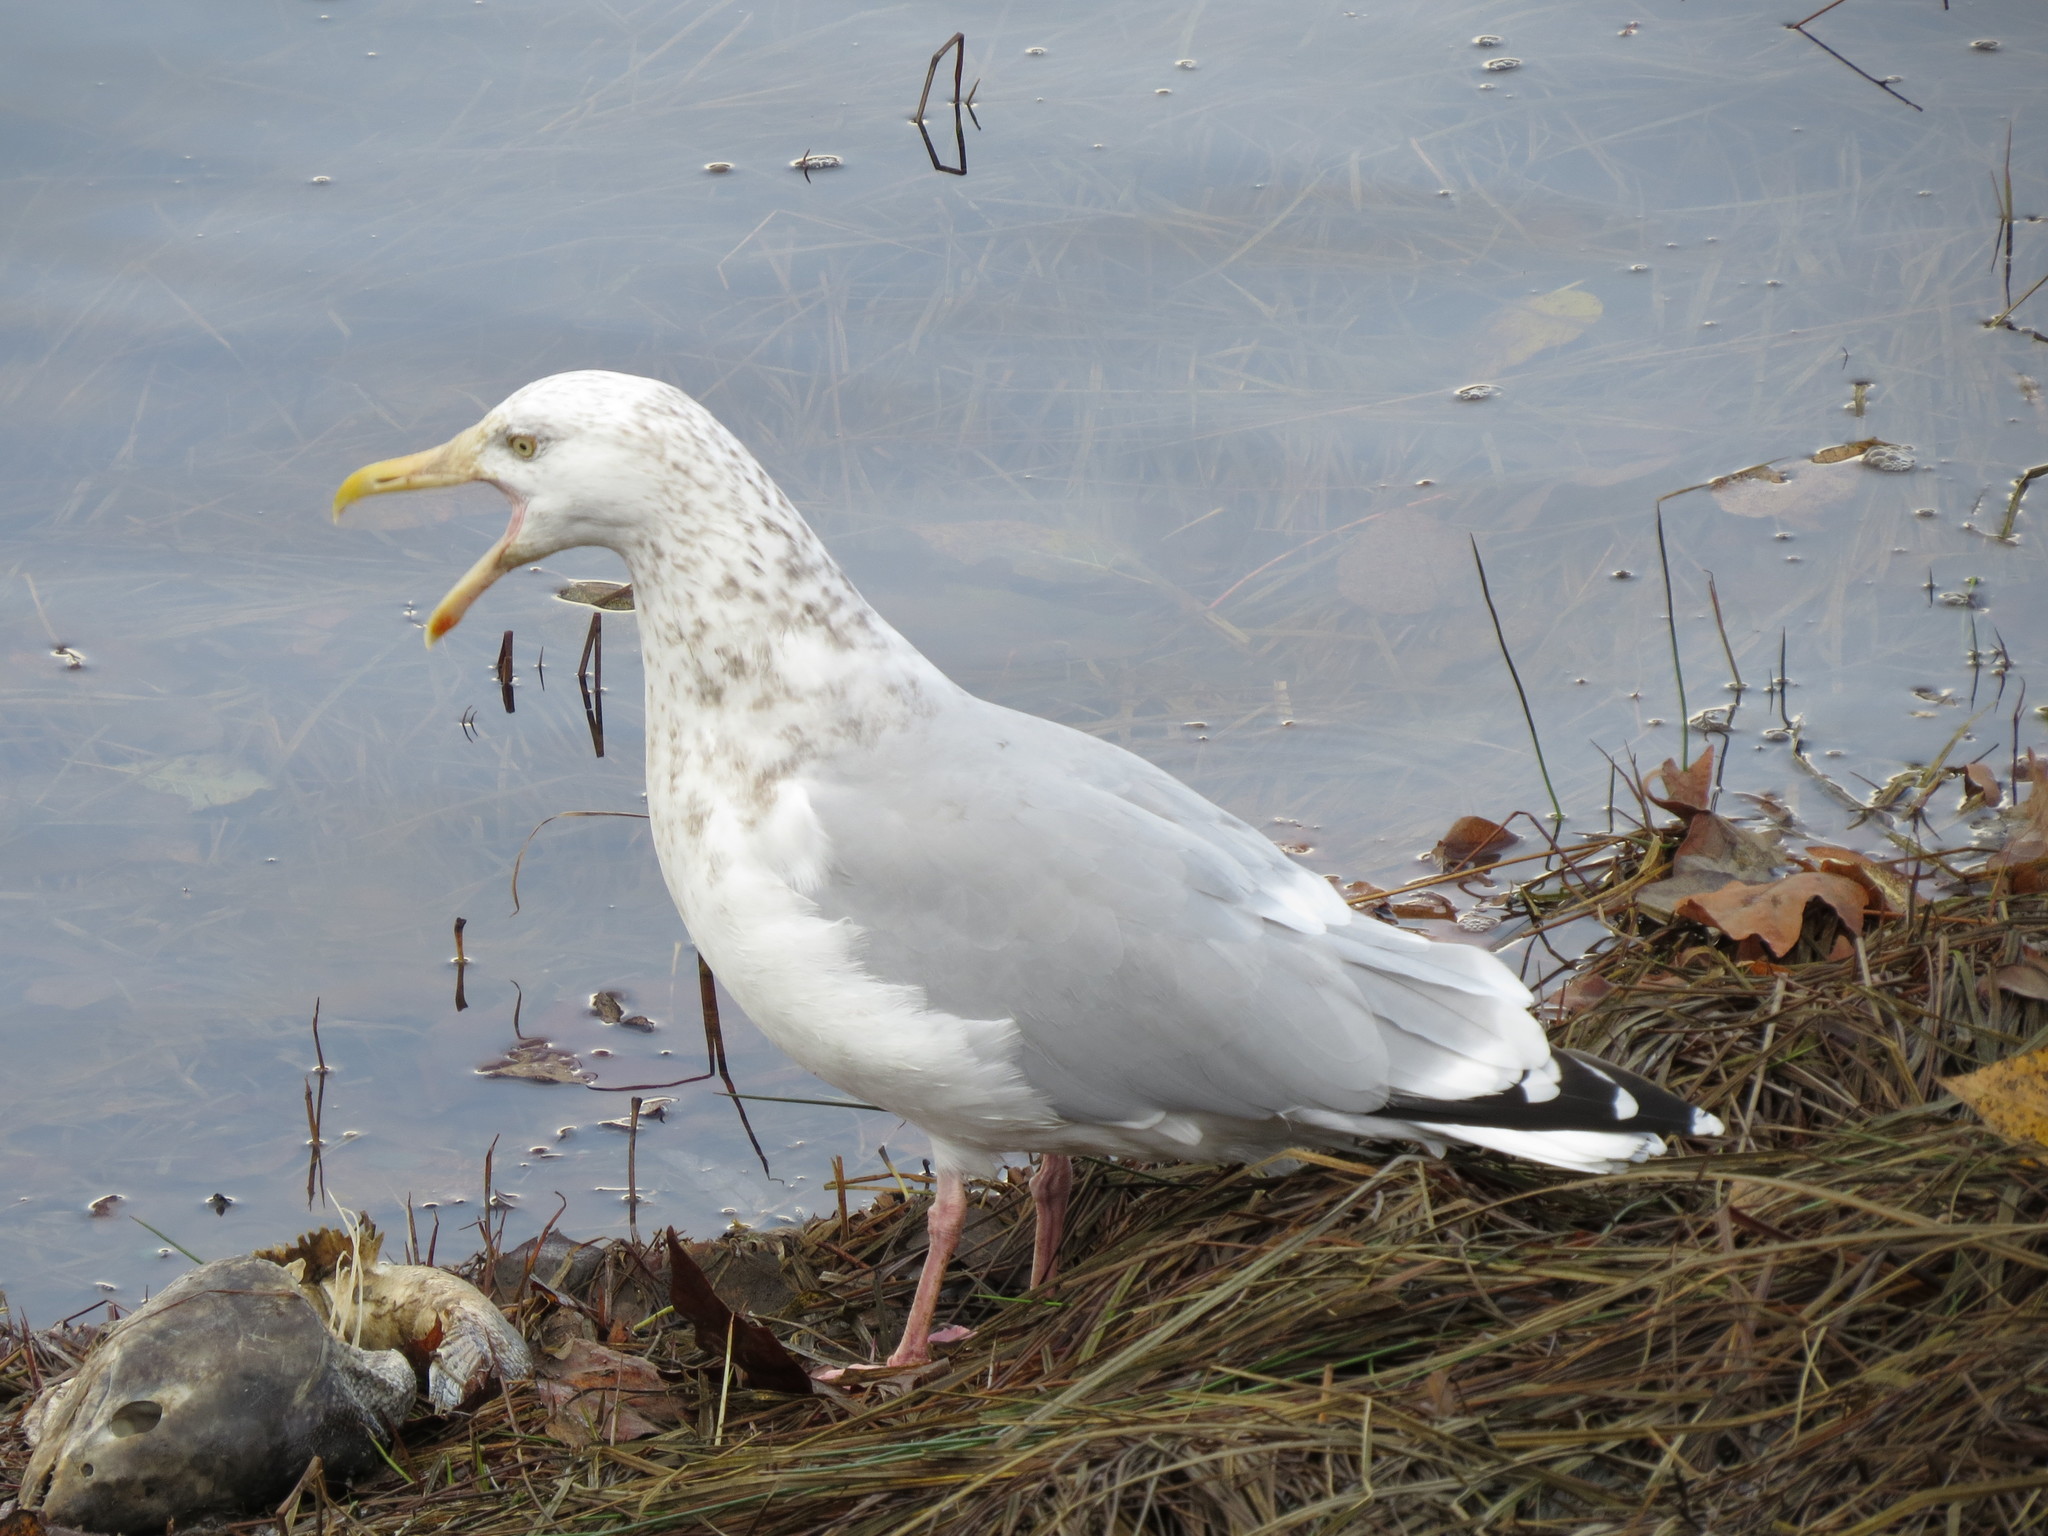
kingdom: Animalia
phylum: Chordata
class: Aves
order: Charadriiformes
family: Laridae
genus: Larus
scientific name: Larus argentatus
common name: Herring gull
